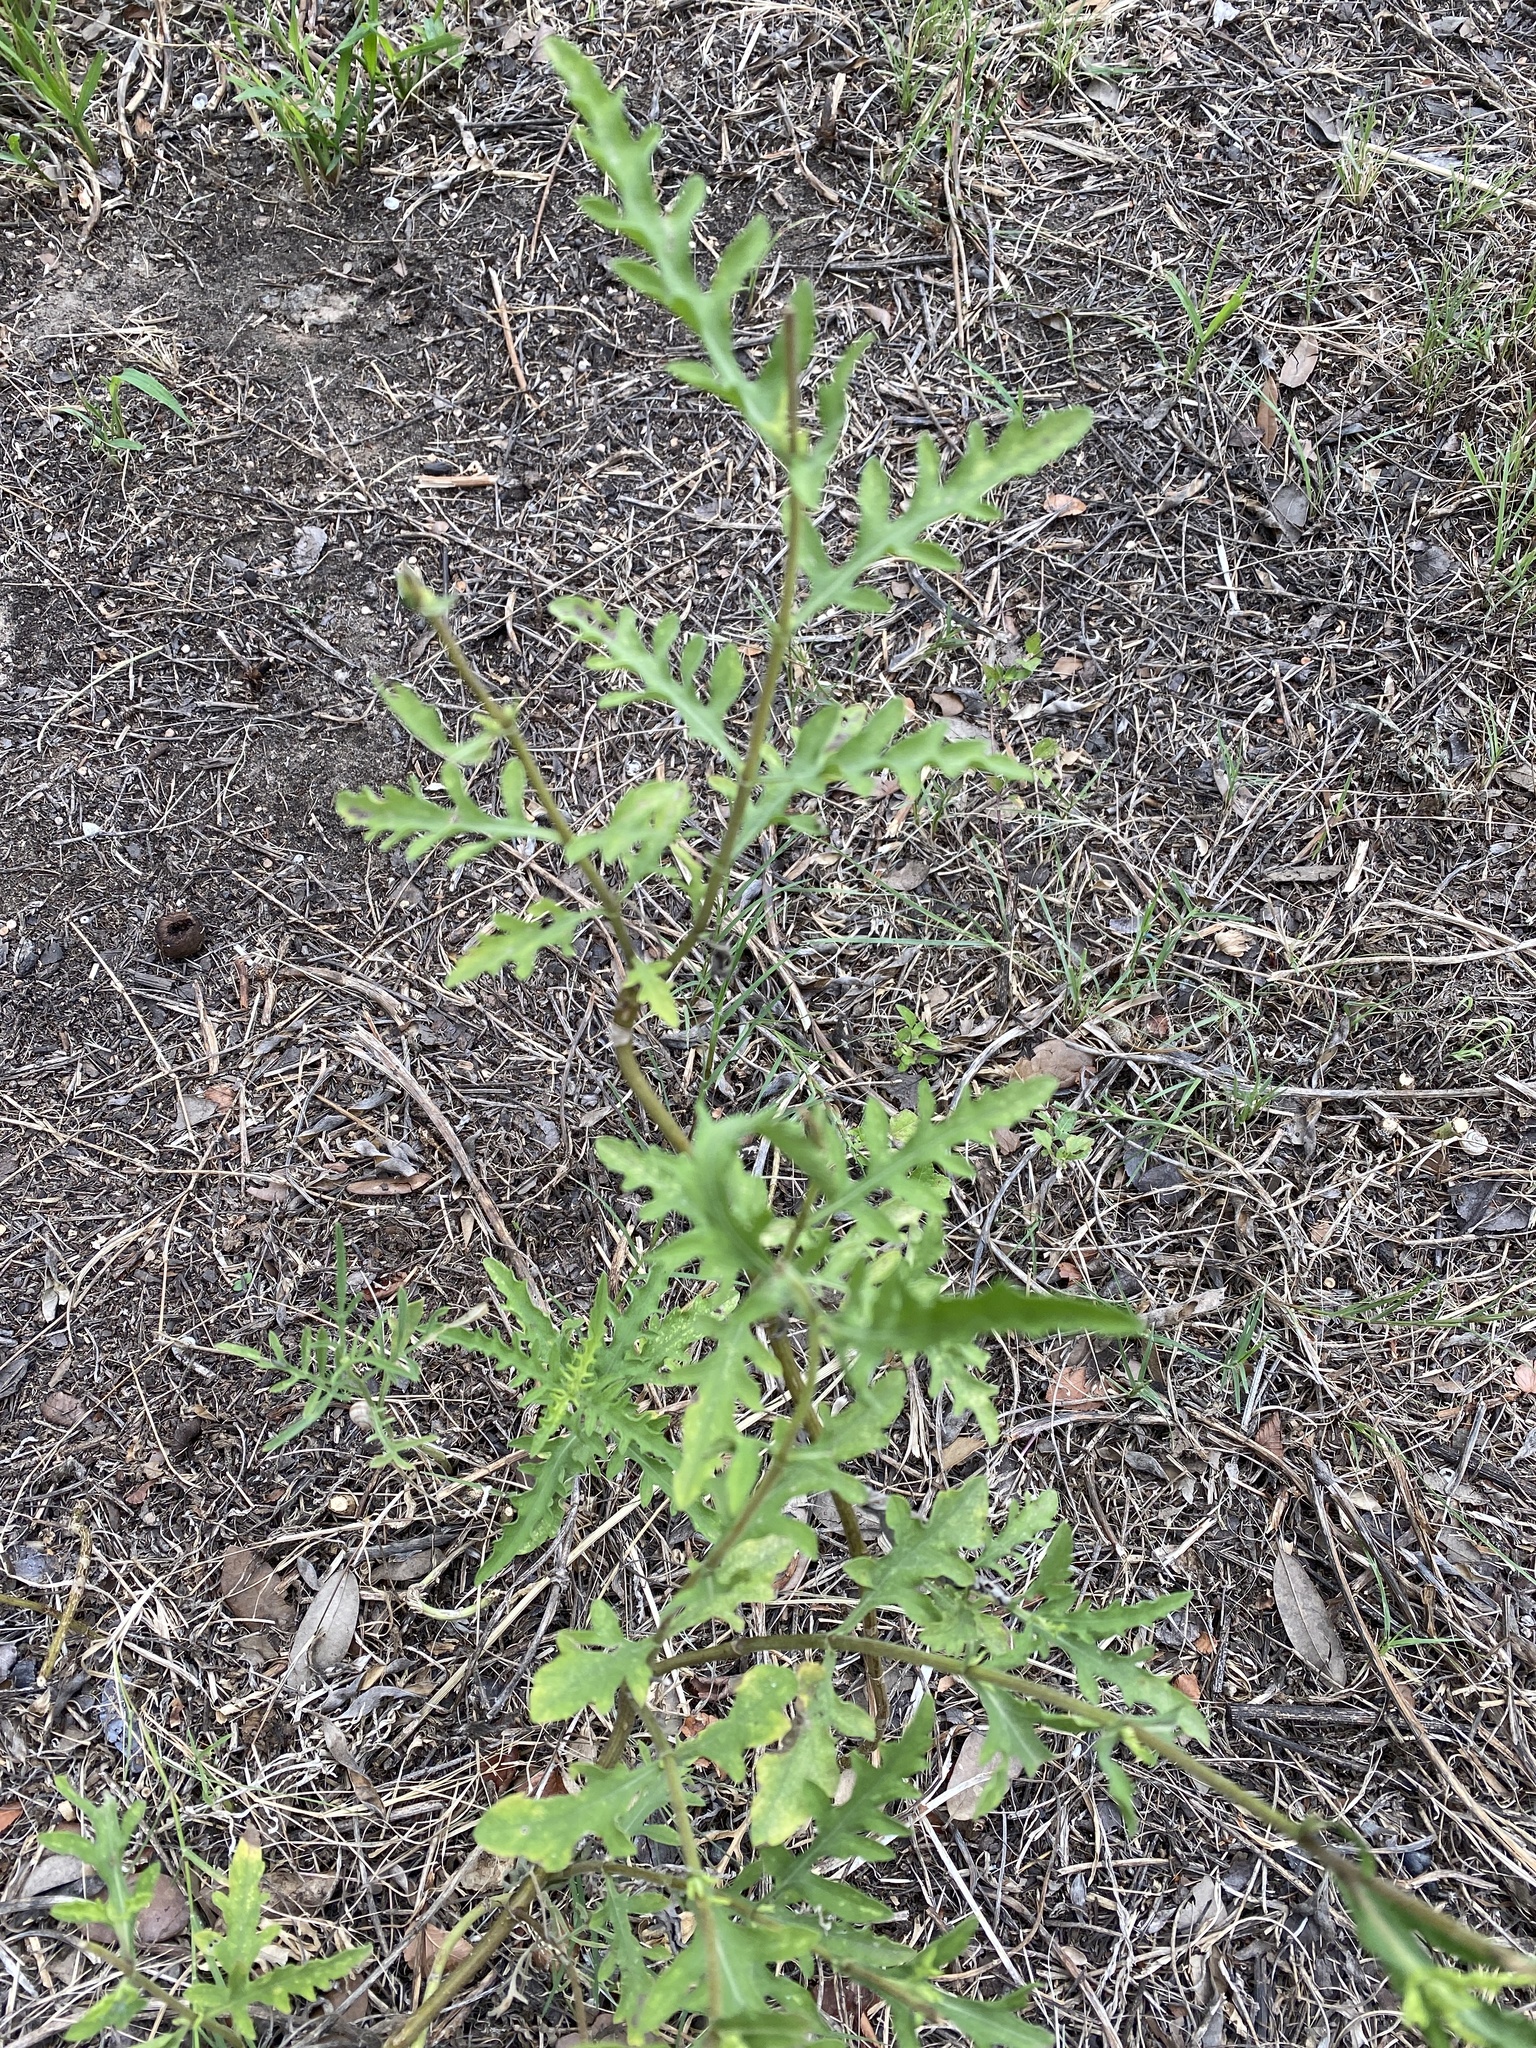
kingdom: Plantae
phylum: Tracheophyta
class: Magnoliopsida
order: Asterales
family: Asteraceae
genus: Ambrosia
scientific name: Ambrosia psilostachya
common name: Perennial ragweed
